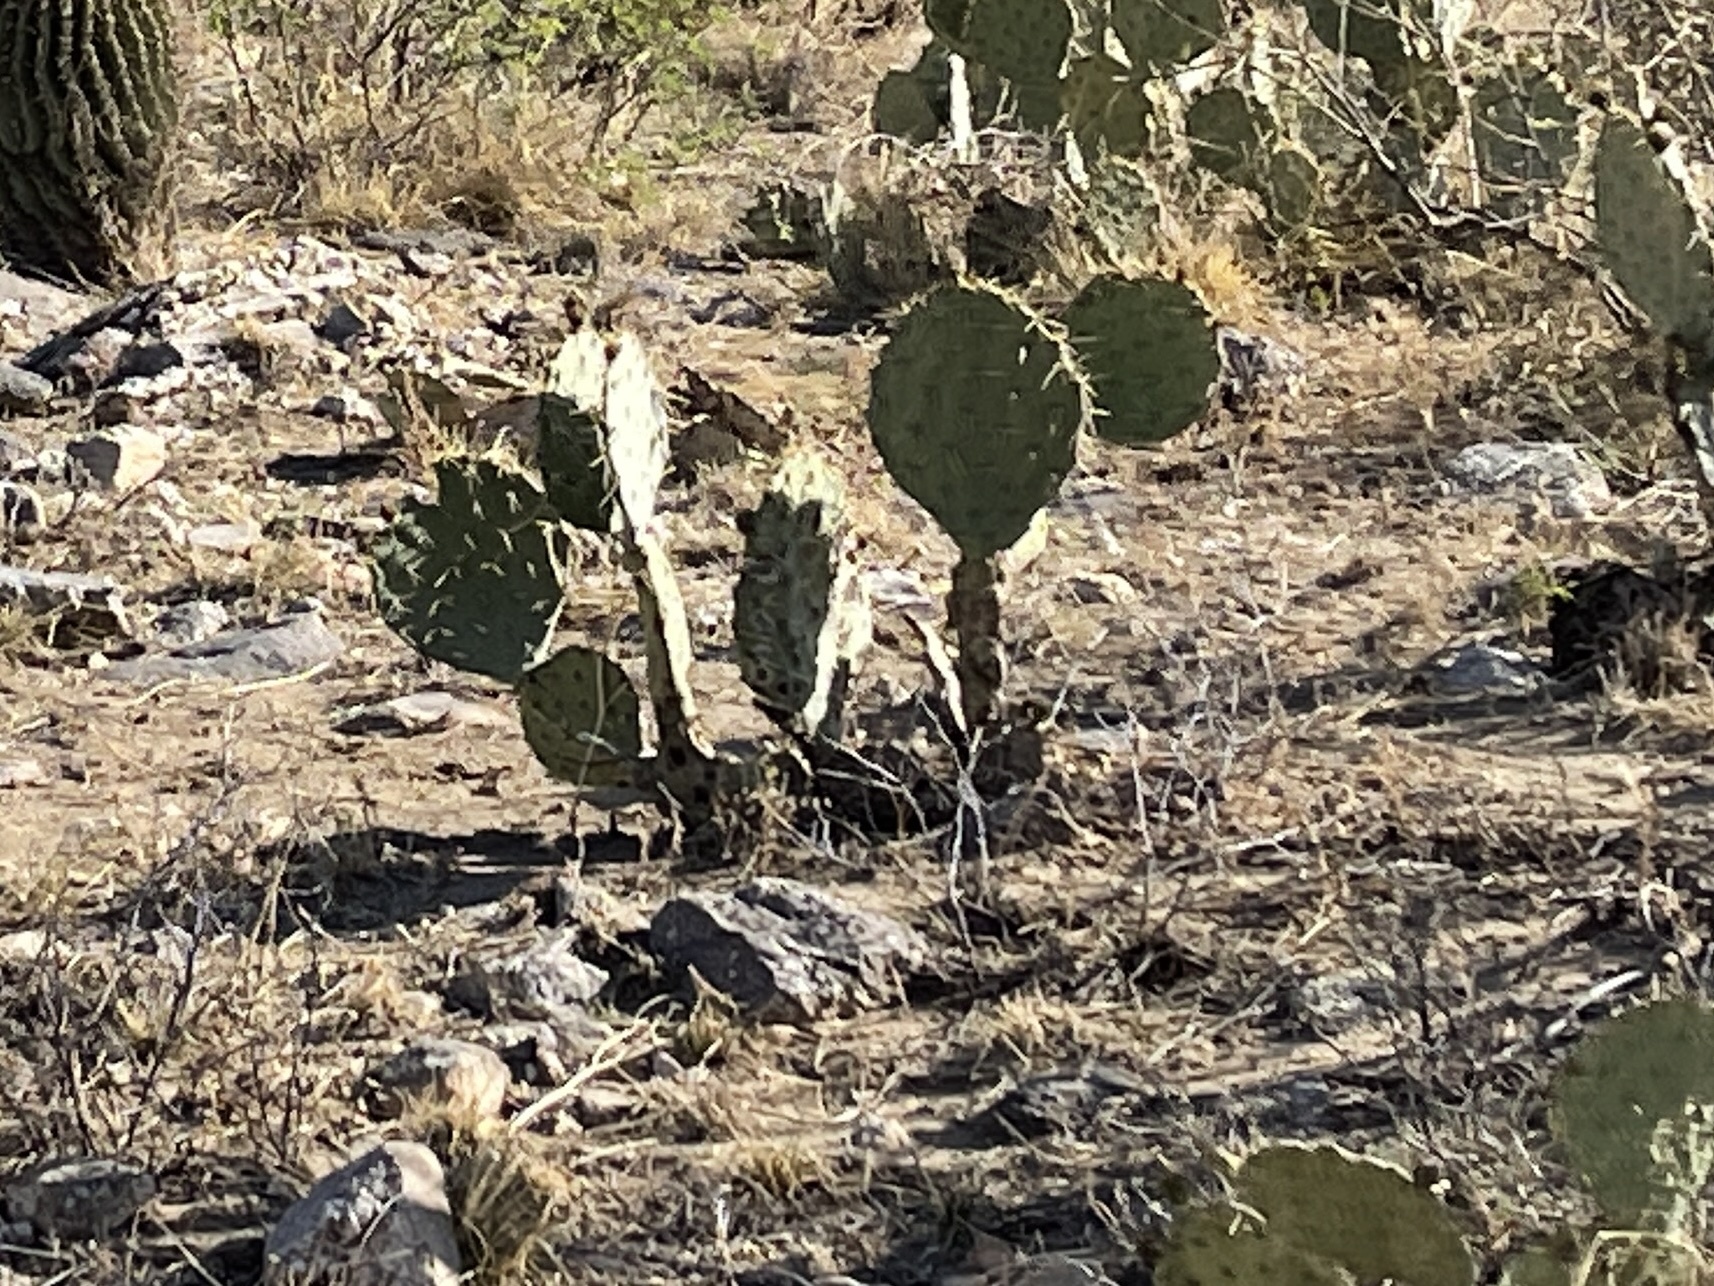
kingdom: Plantae
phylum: Tracheophyta
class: Magnoliopsida
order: Caryophyllales
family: Cactaceae
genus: Opuntia
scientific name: Opuntia engelmannii
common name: Cactus-apple
